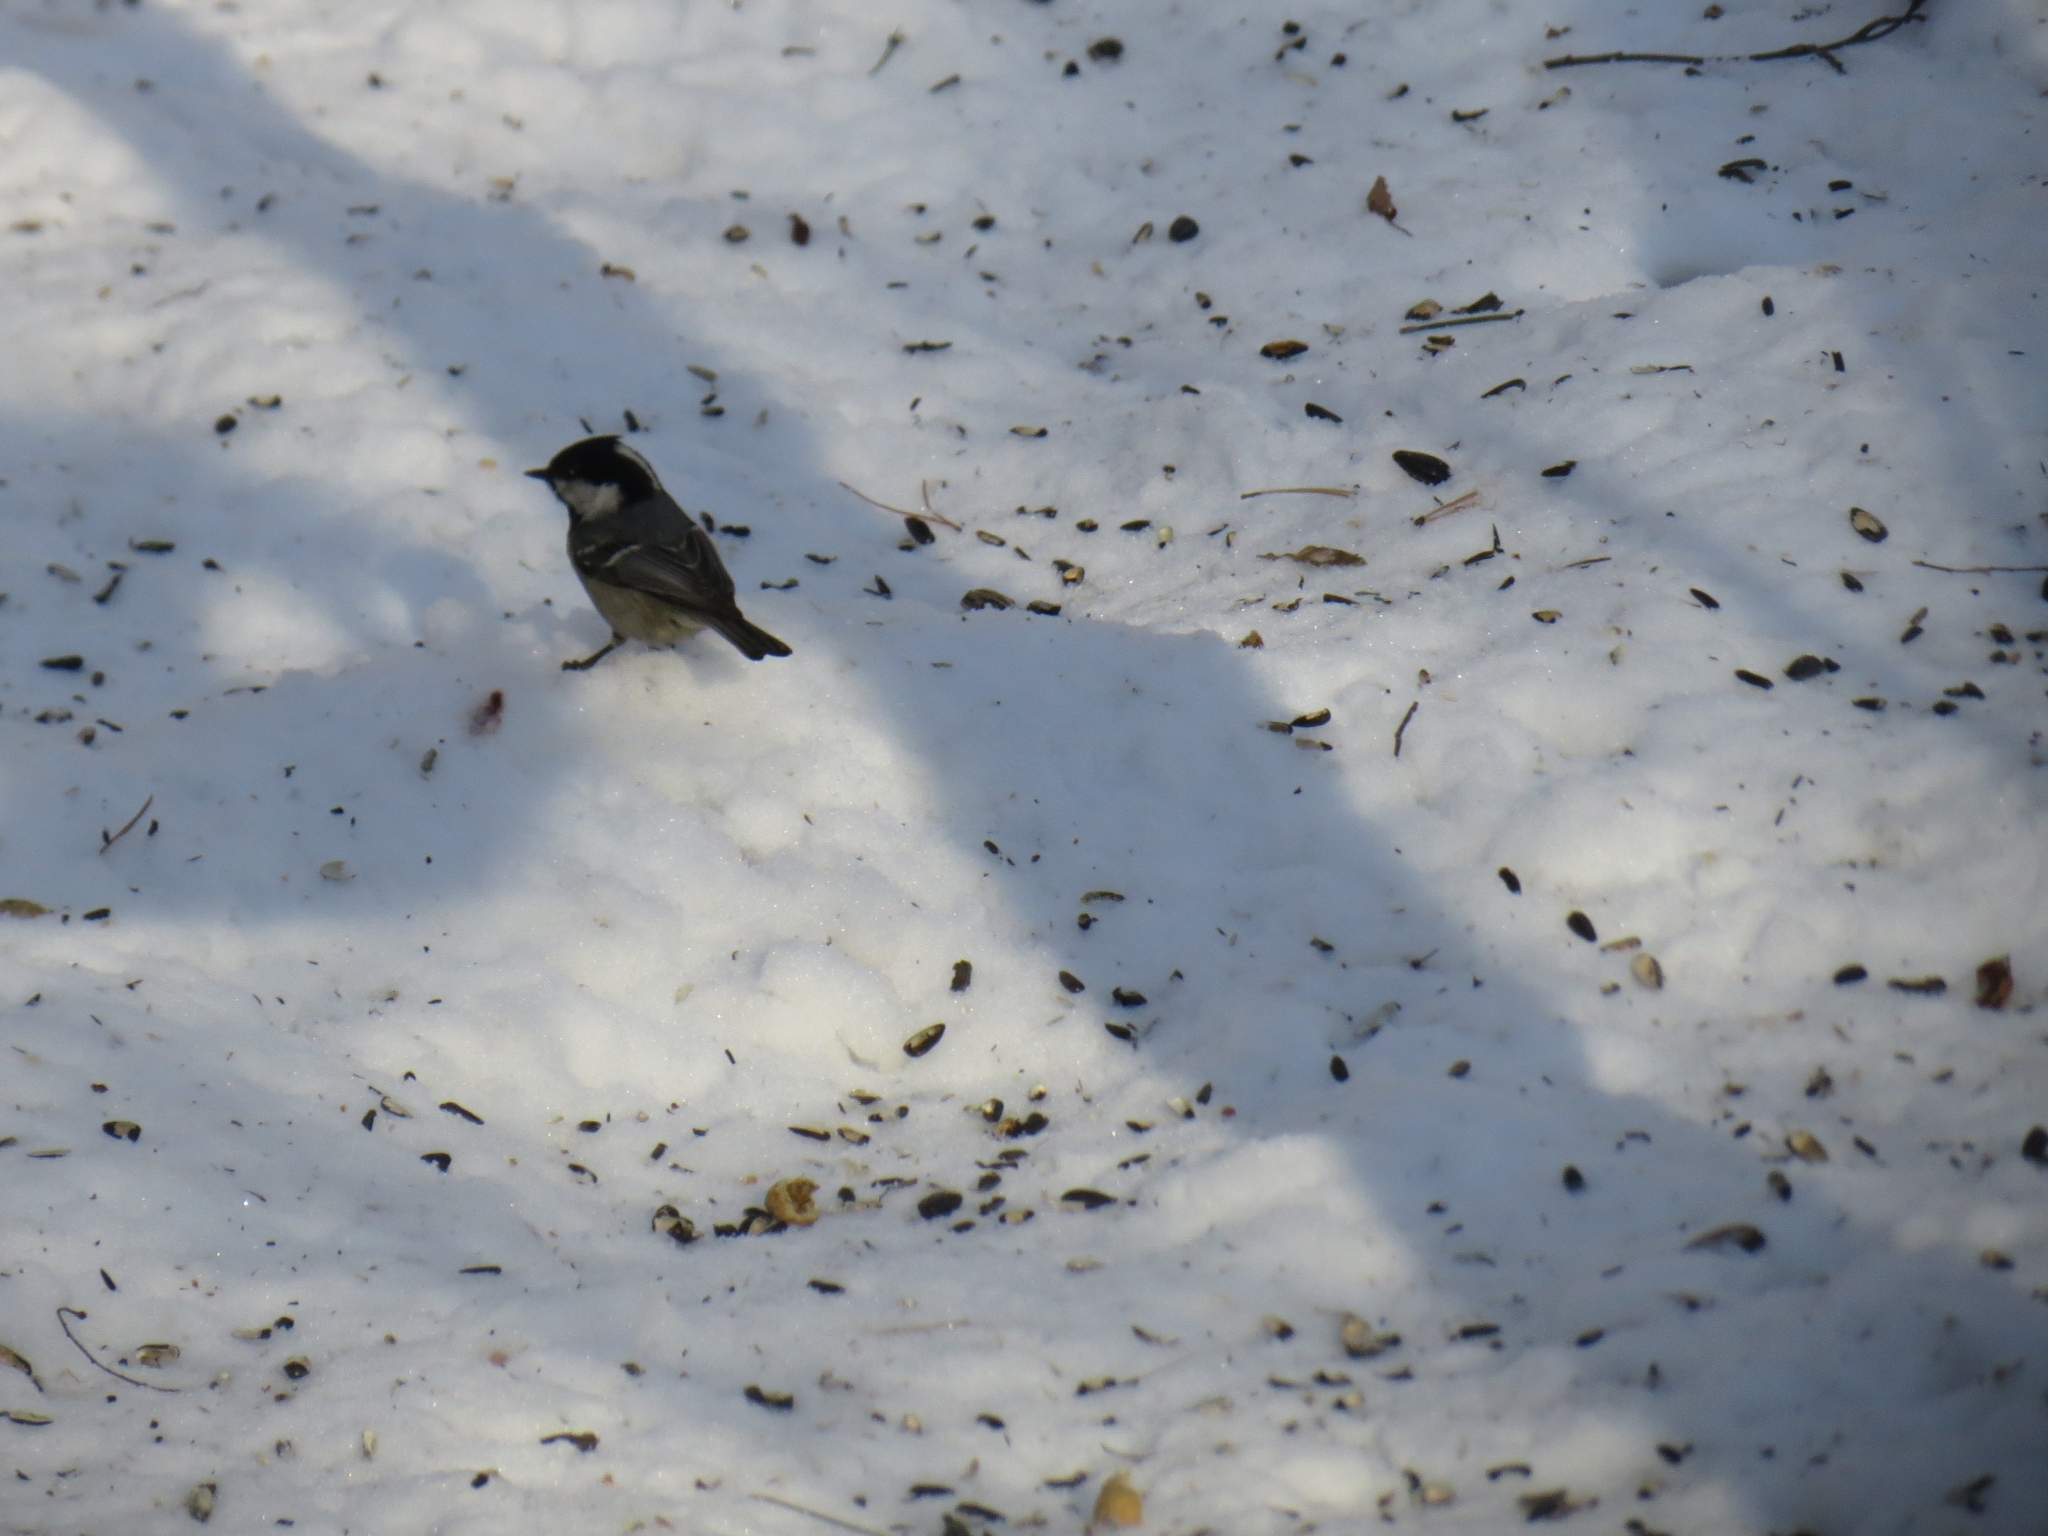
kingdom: Animalia
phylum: Chordata
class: Aves
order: Passeriformes
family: Paridae
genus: Periparus
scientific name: Periparus ater
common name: Coal tit
